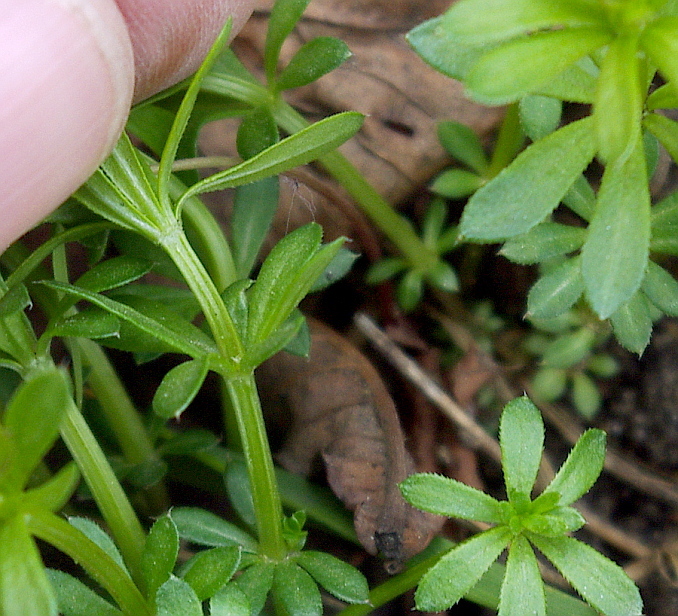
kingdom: Plantae
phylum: Tracheophyta
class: Magnoliopsida
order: Gentianales
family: Rubiaceae
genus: Galium
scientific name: Galium mollugo
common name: Hedge bedstraw
